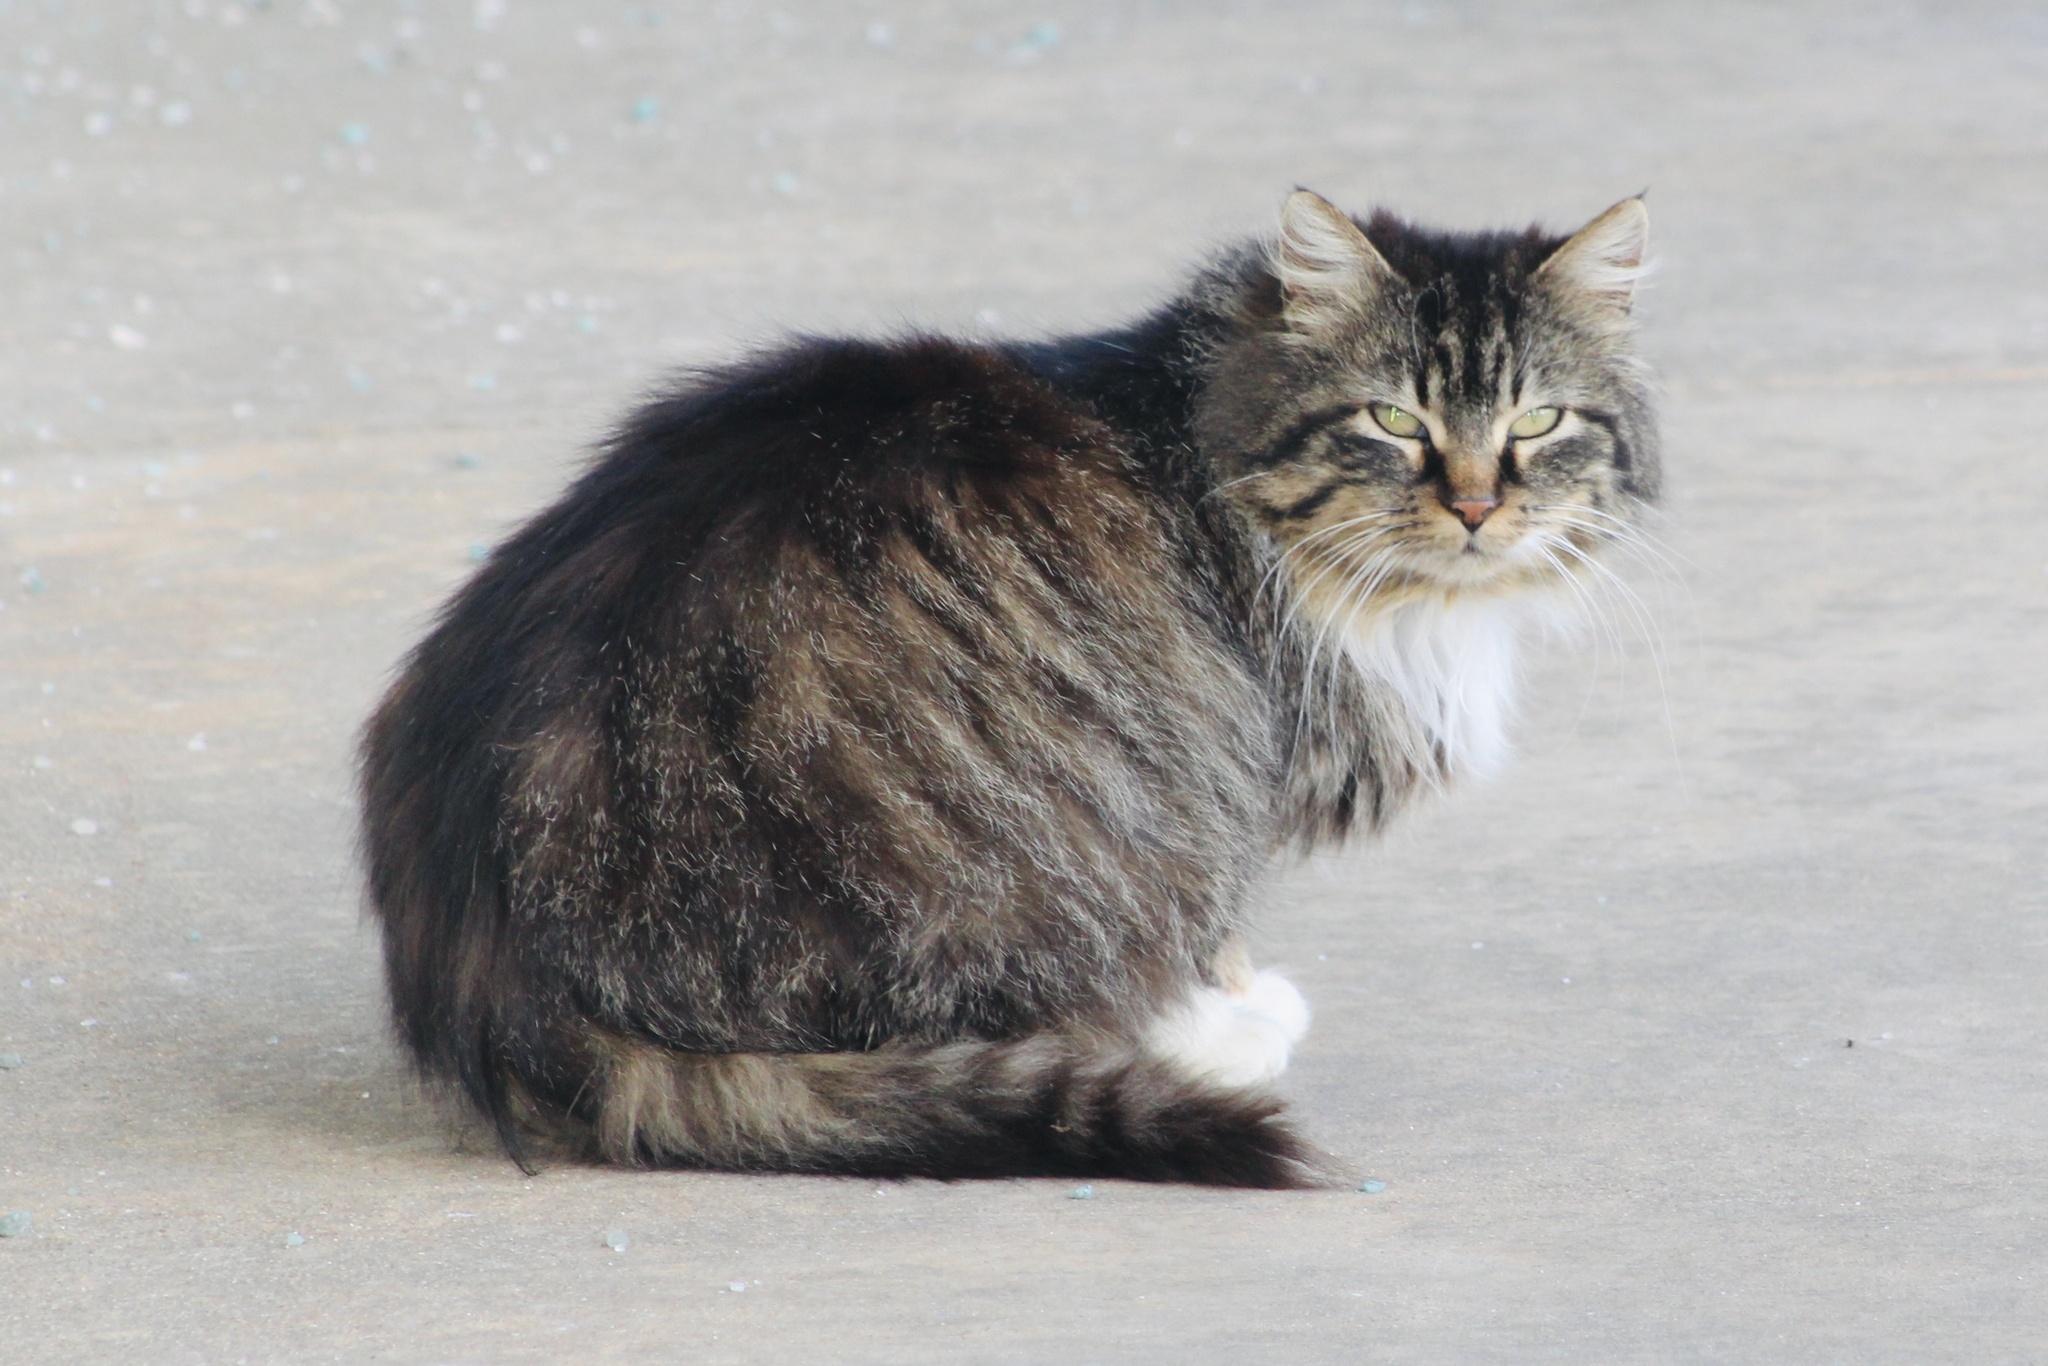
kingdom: Animalia
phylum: Chordata
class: Mammalia
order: Carnivora
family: Felidae
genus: Felis
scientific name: Felis catus
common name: Domestic cat
